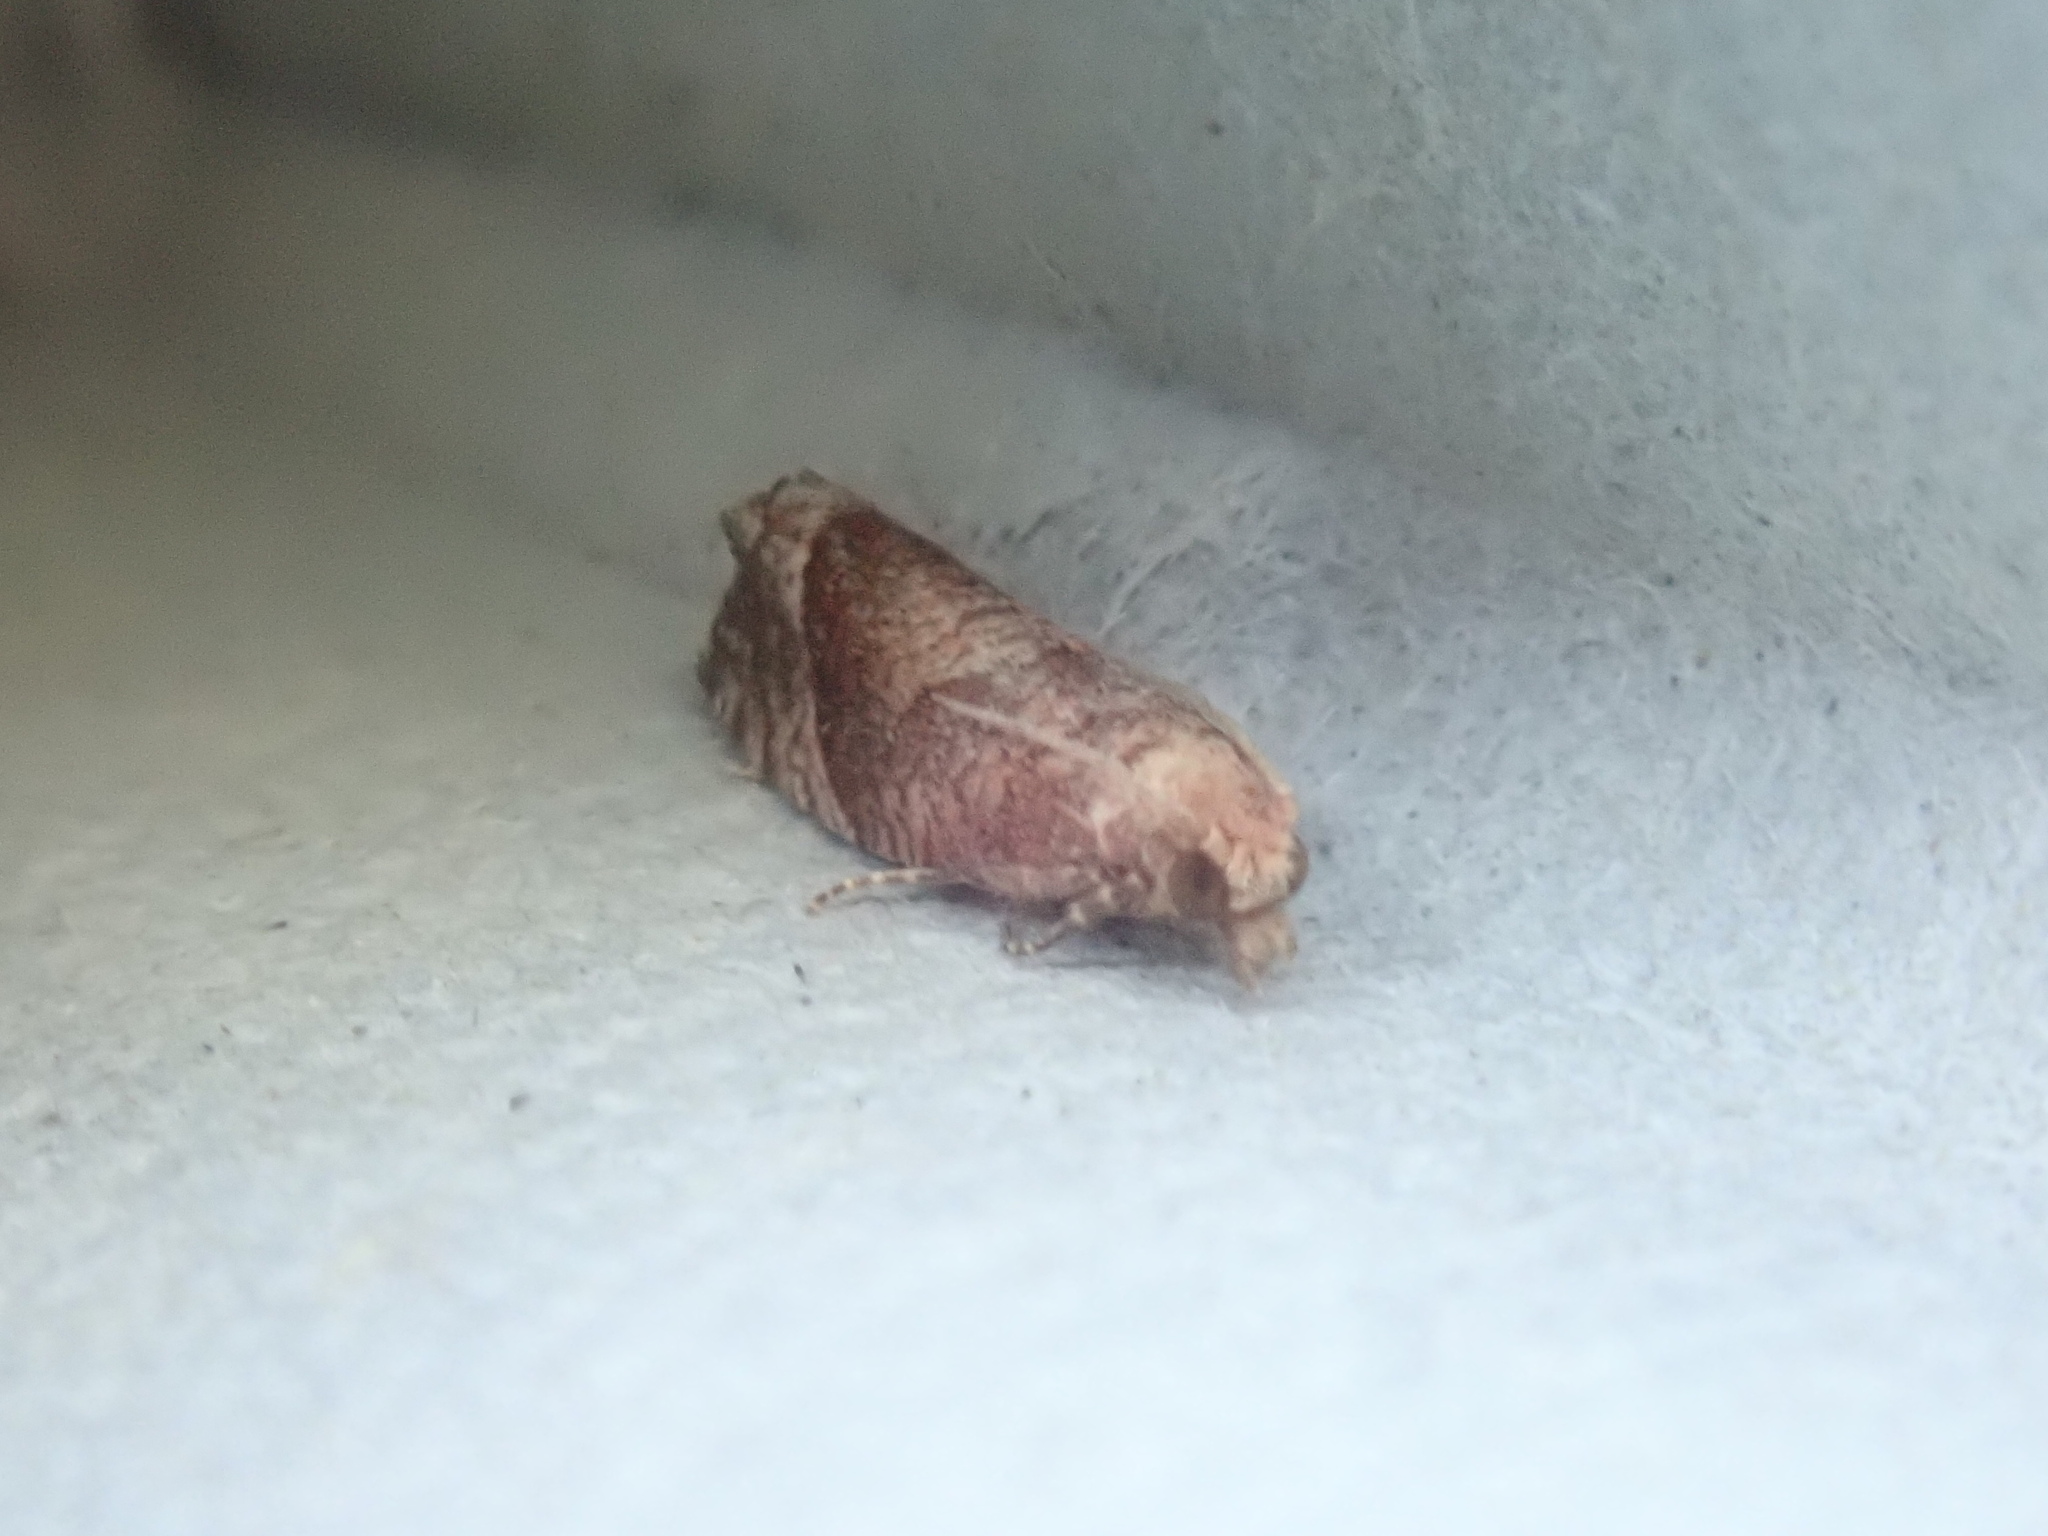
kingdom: Animalia
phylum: Arthropoda
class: Insecta
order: Lepidoptera
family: Tortricidae
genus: Pelochrista
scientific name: Pelochrista derelicta
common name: Derelict pelochrista moth
